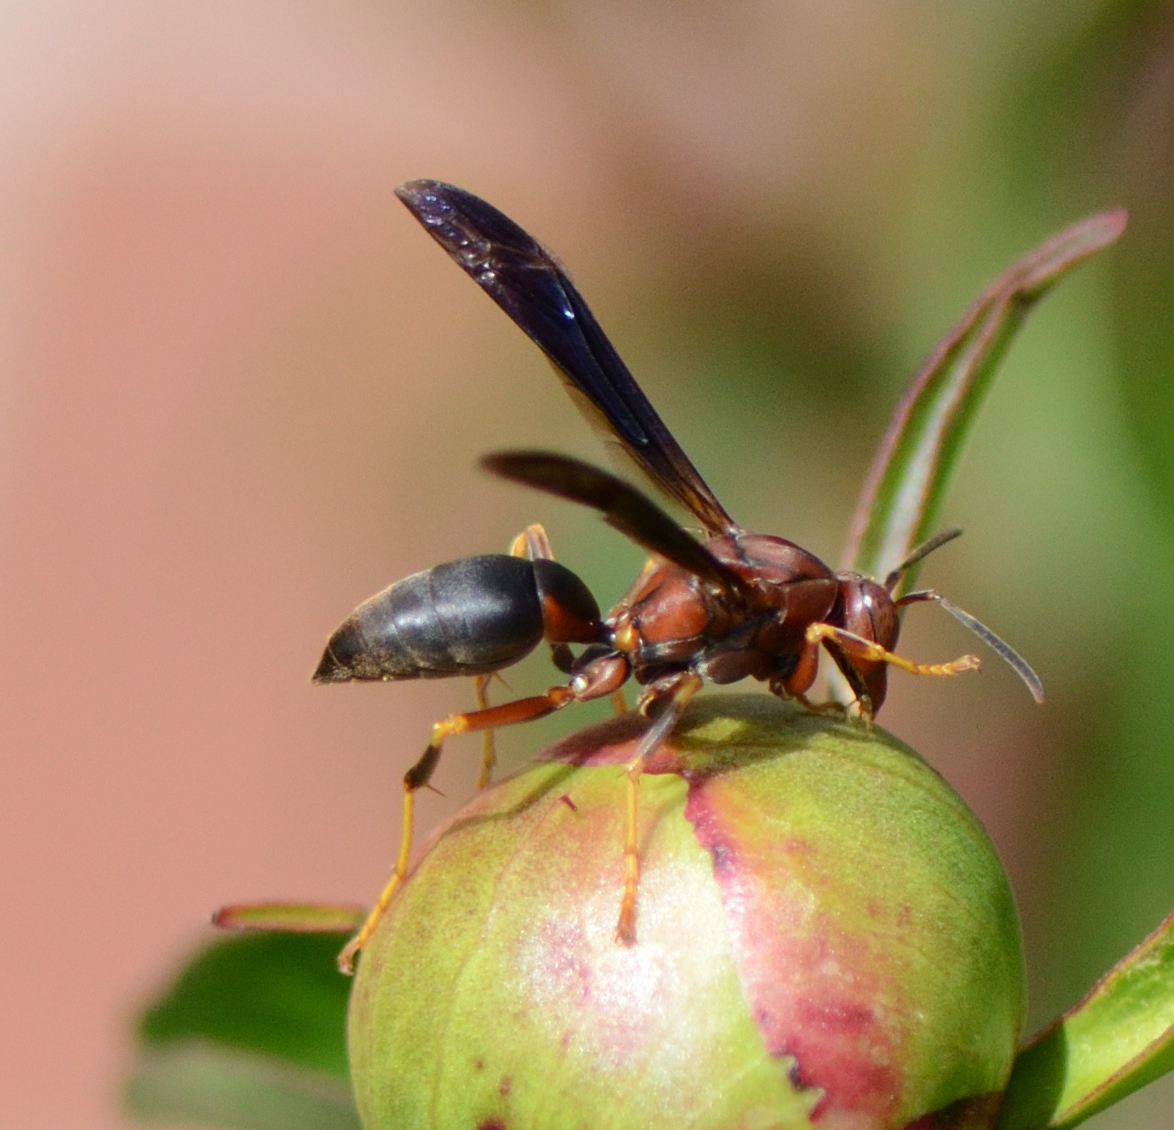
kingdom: Animalia
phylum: Arthropoda
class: Insecta
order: Hymenoptera
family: Eumenidae
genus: Polistes
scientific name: Polistes metricus
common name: Metric paper wasp
